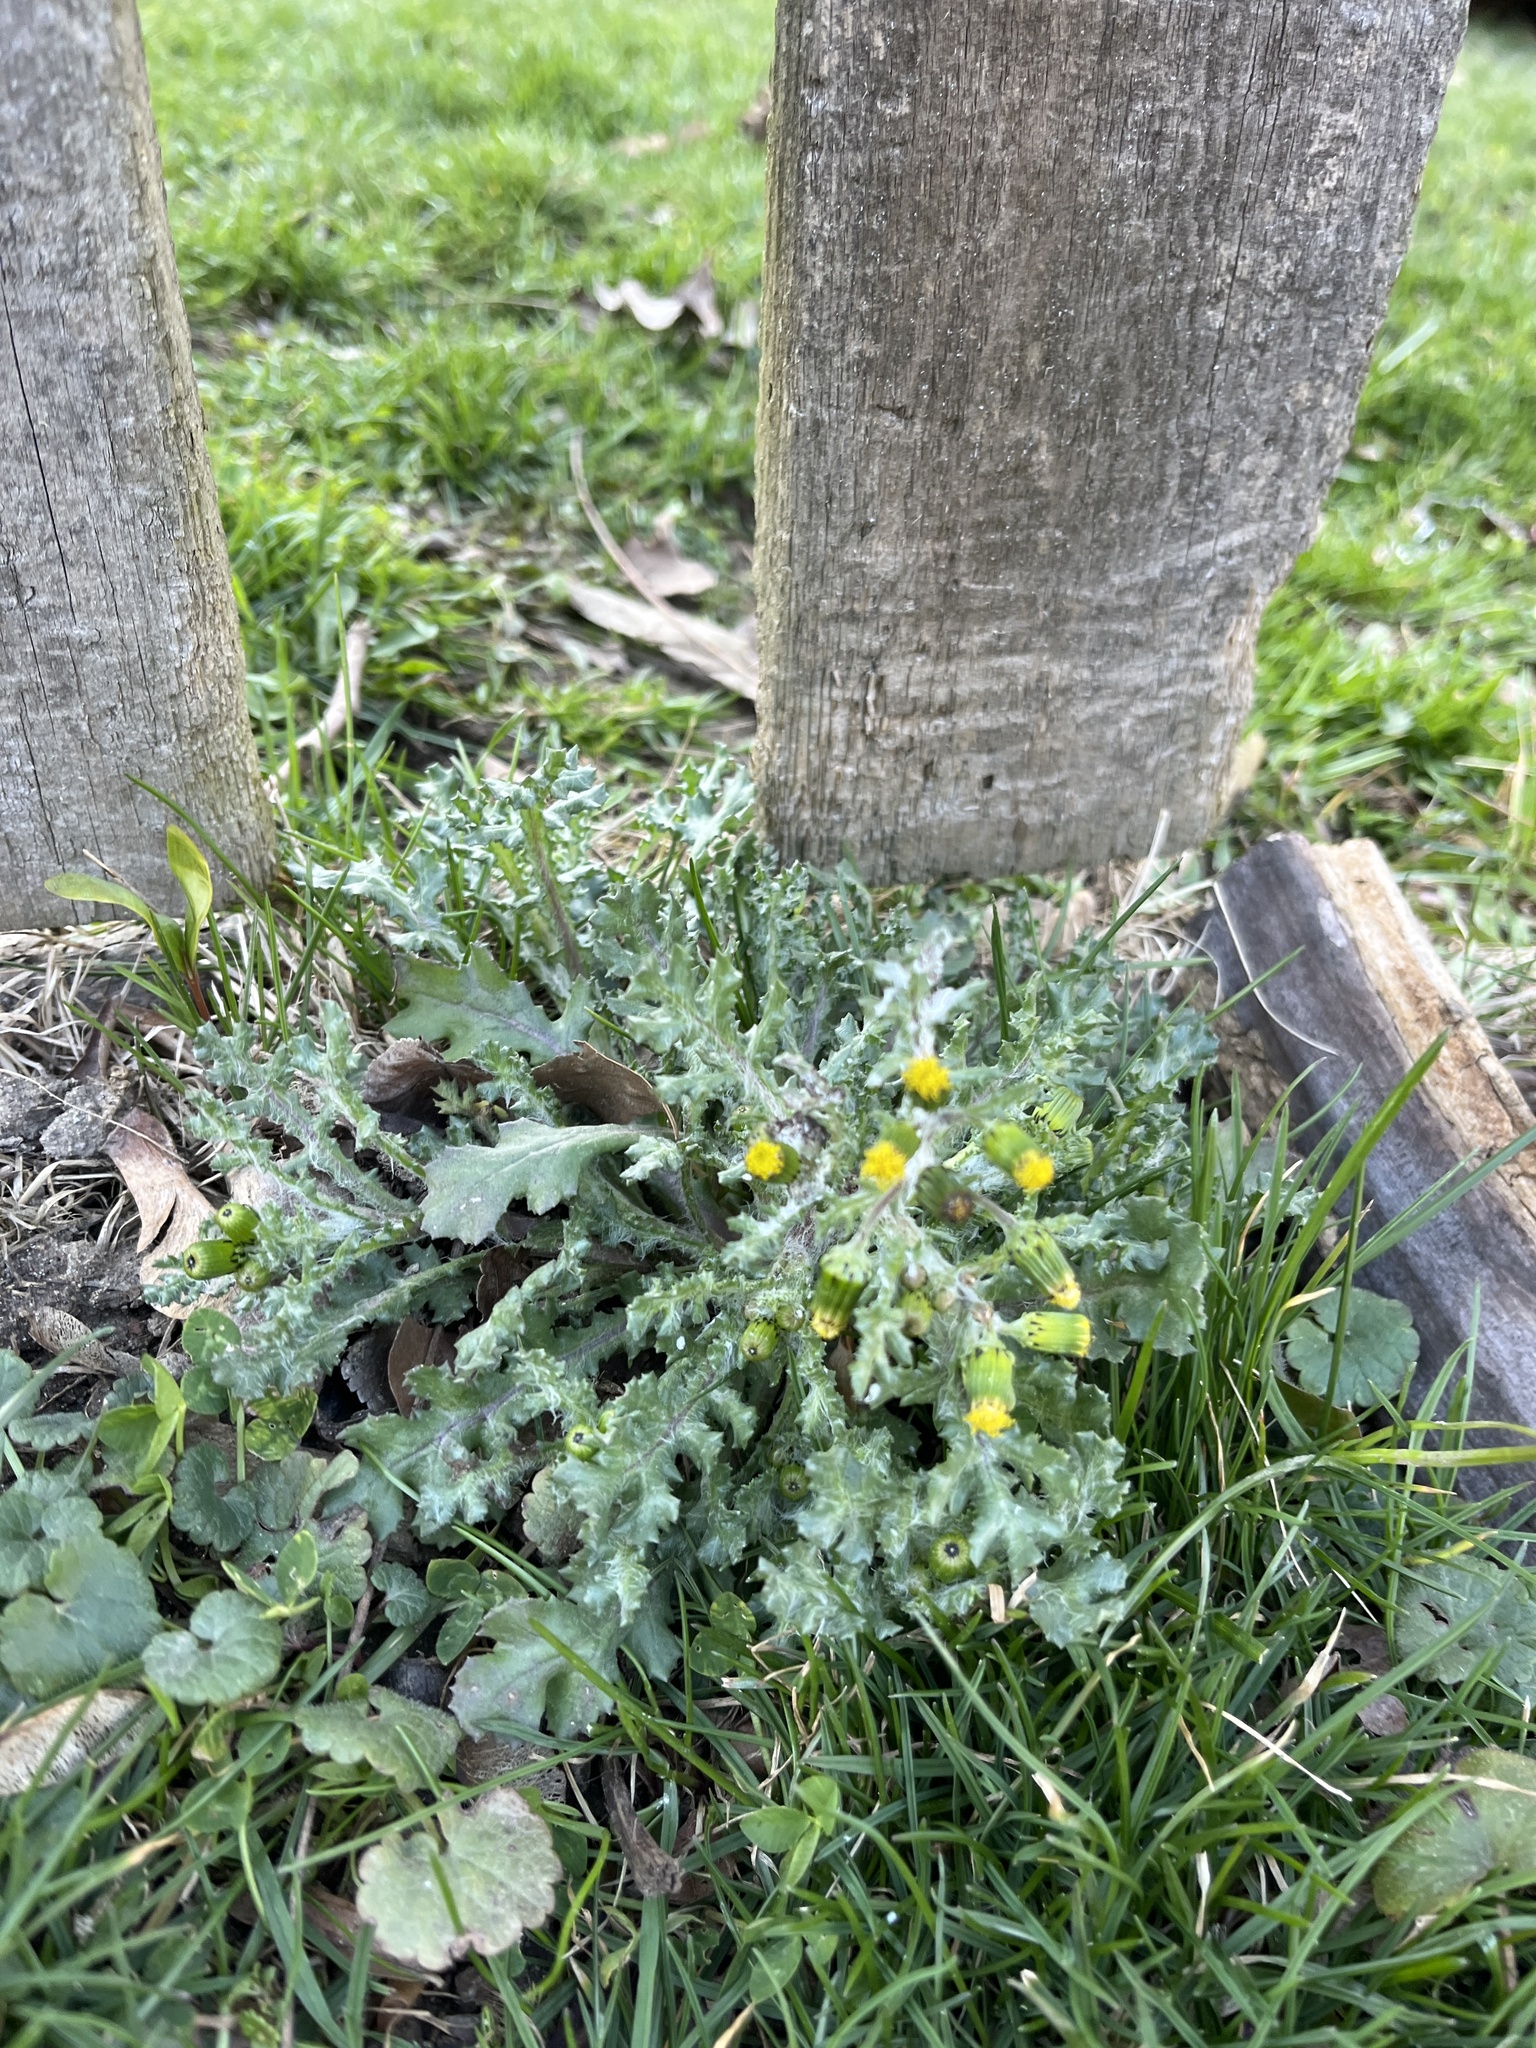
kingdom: Plantae
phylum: Tracheophyta
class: Magnoliopsida
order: Asterales
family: Asteraceae
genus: Senecio
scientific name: Senecio vulgaris
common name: Old-man-in-the-spring
